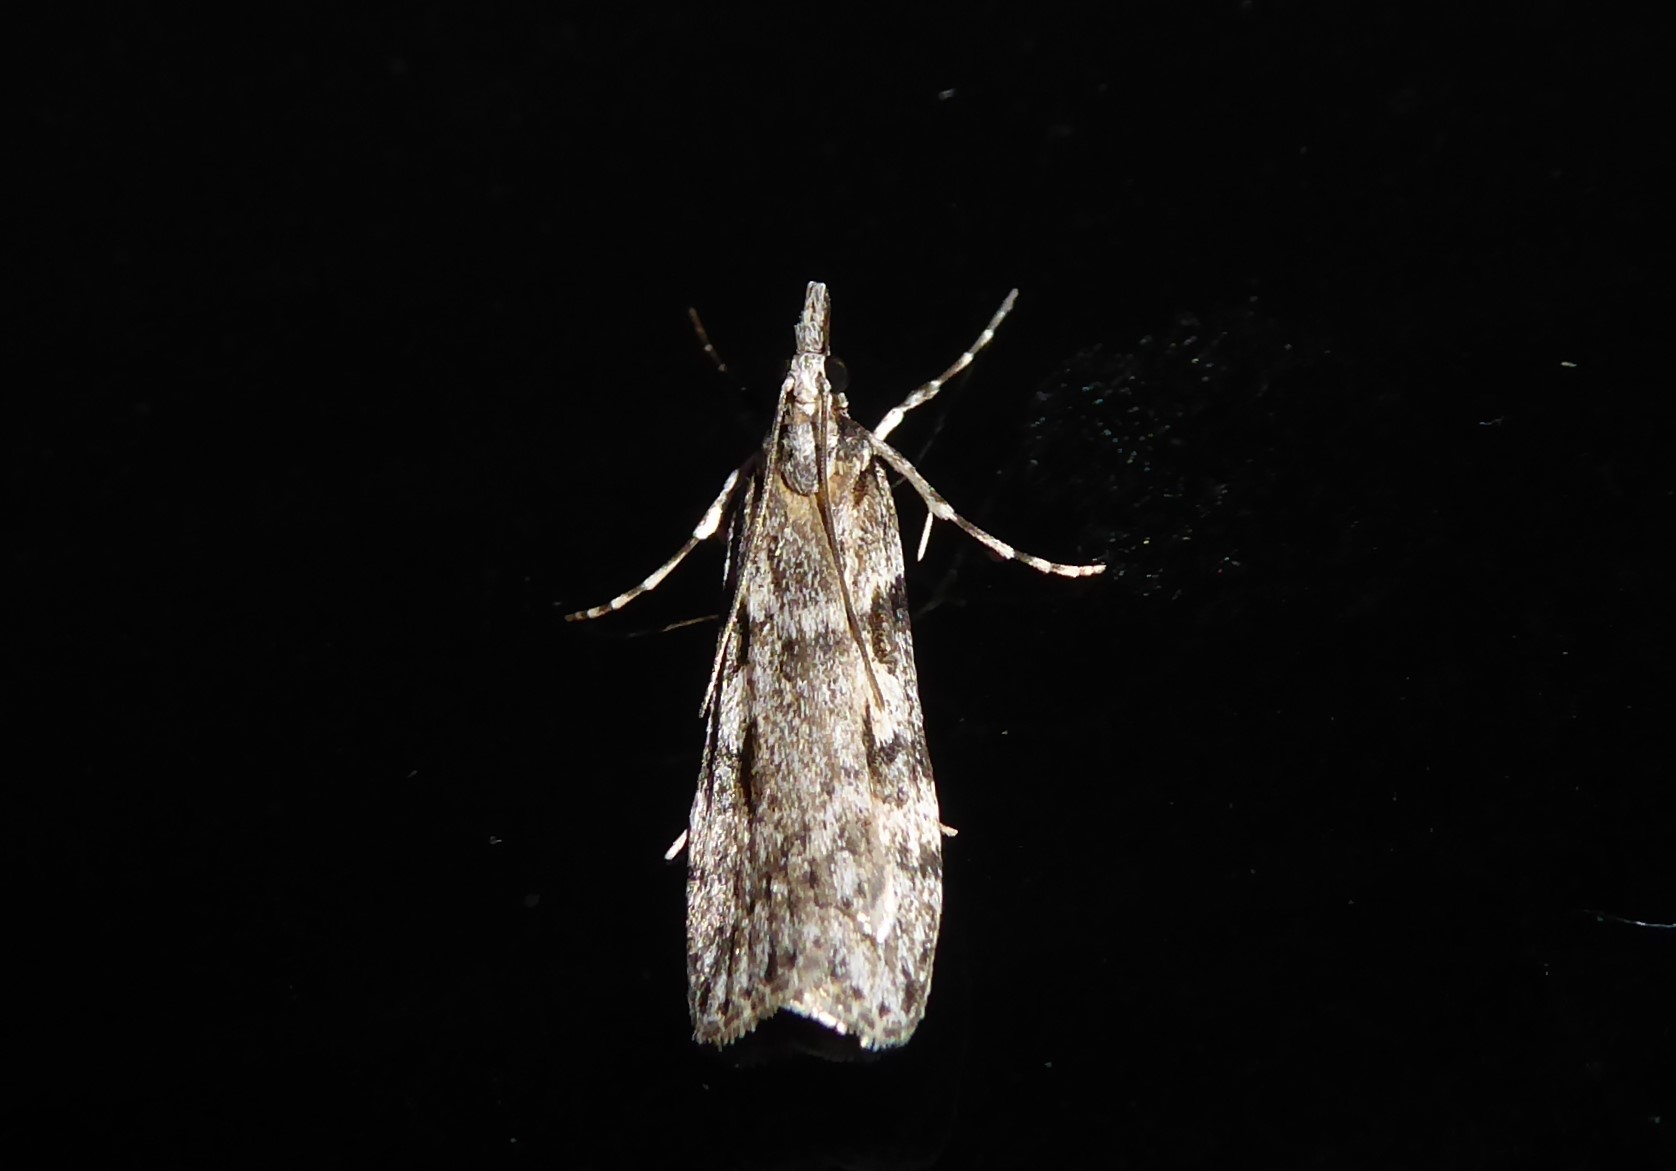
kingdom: Animalia
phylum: Arthropoda
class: Insecta
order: Lepidoptera
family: Crambidae
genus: Scoparia
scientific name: Scoparia halopis
